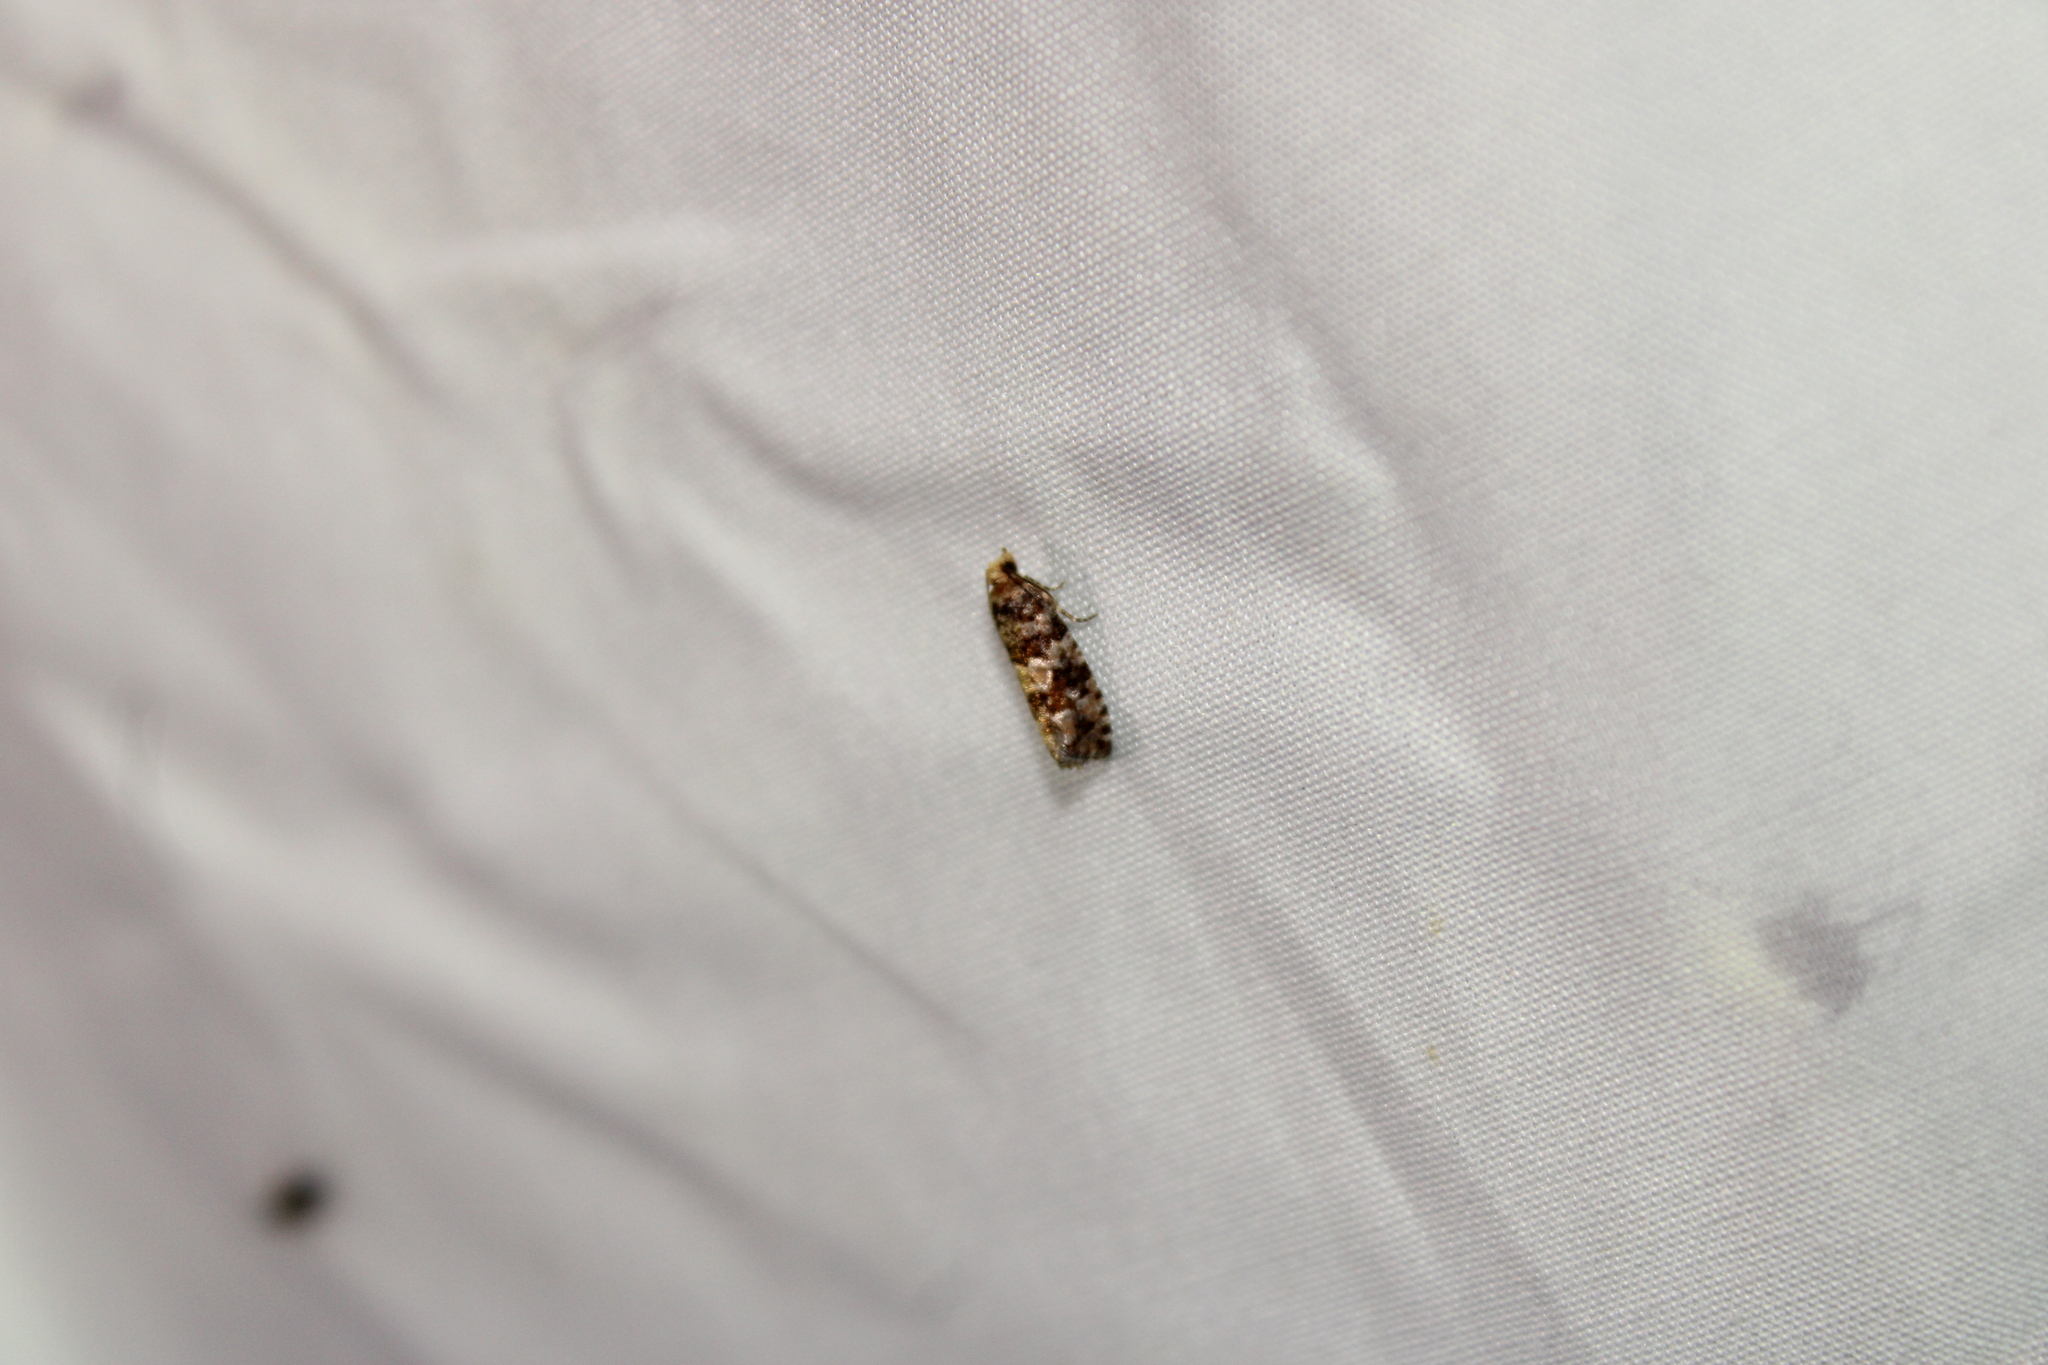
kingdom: Animalia
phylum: Arthropoda
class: Insecta
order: Lepidoptera
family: Tortricidae
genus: Eucopina
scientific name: Eucopina tocullionana
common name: White pinecone borer moth
